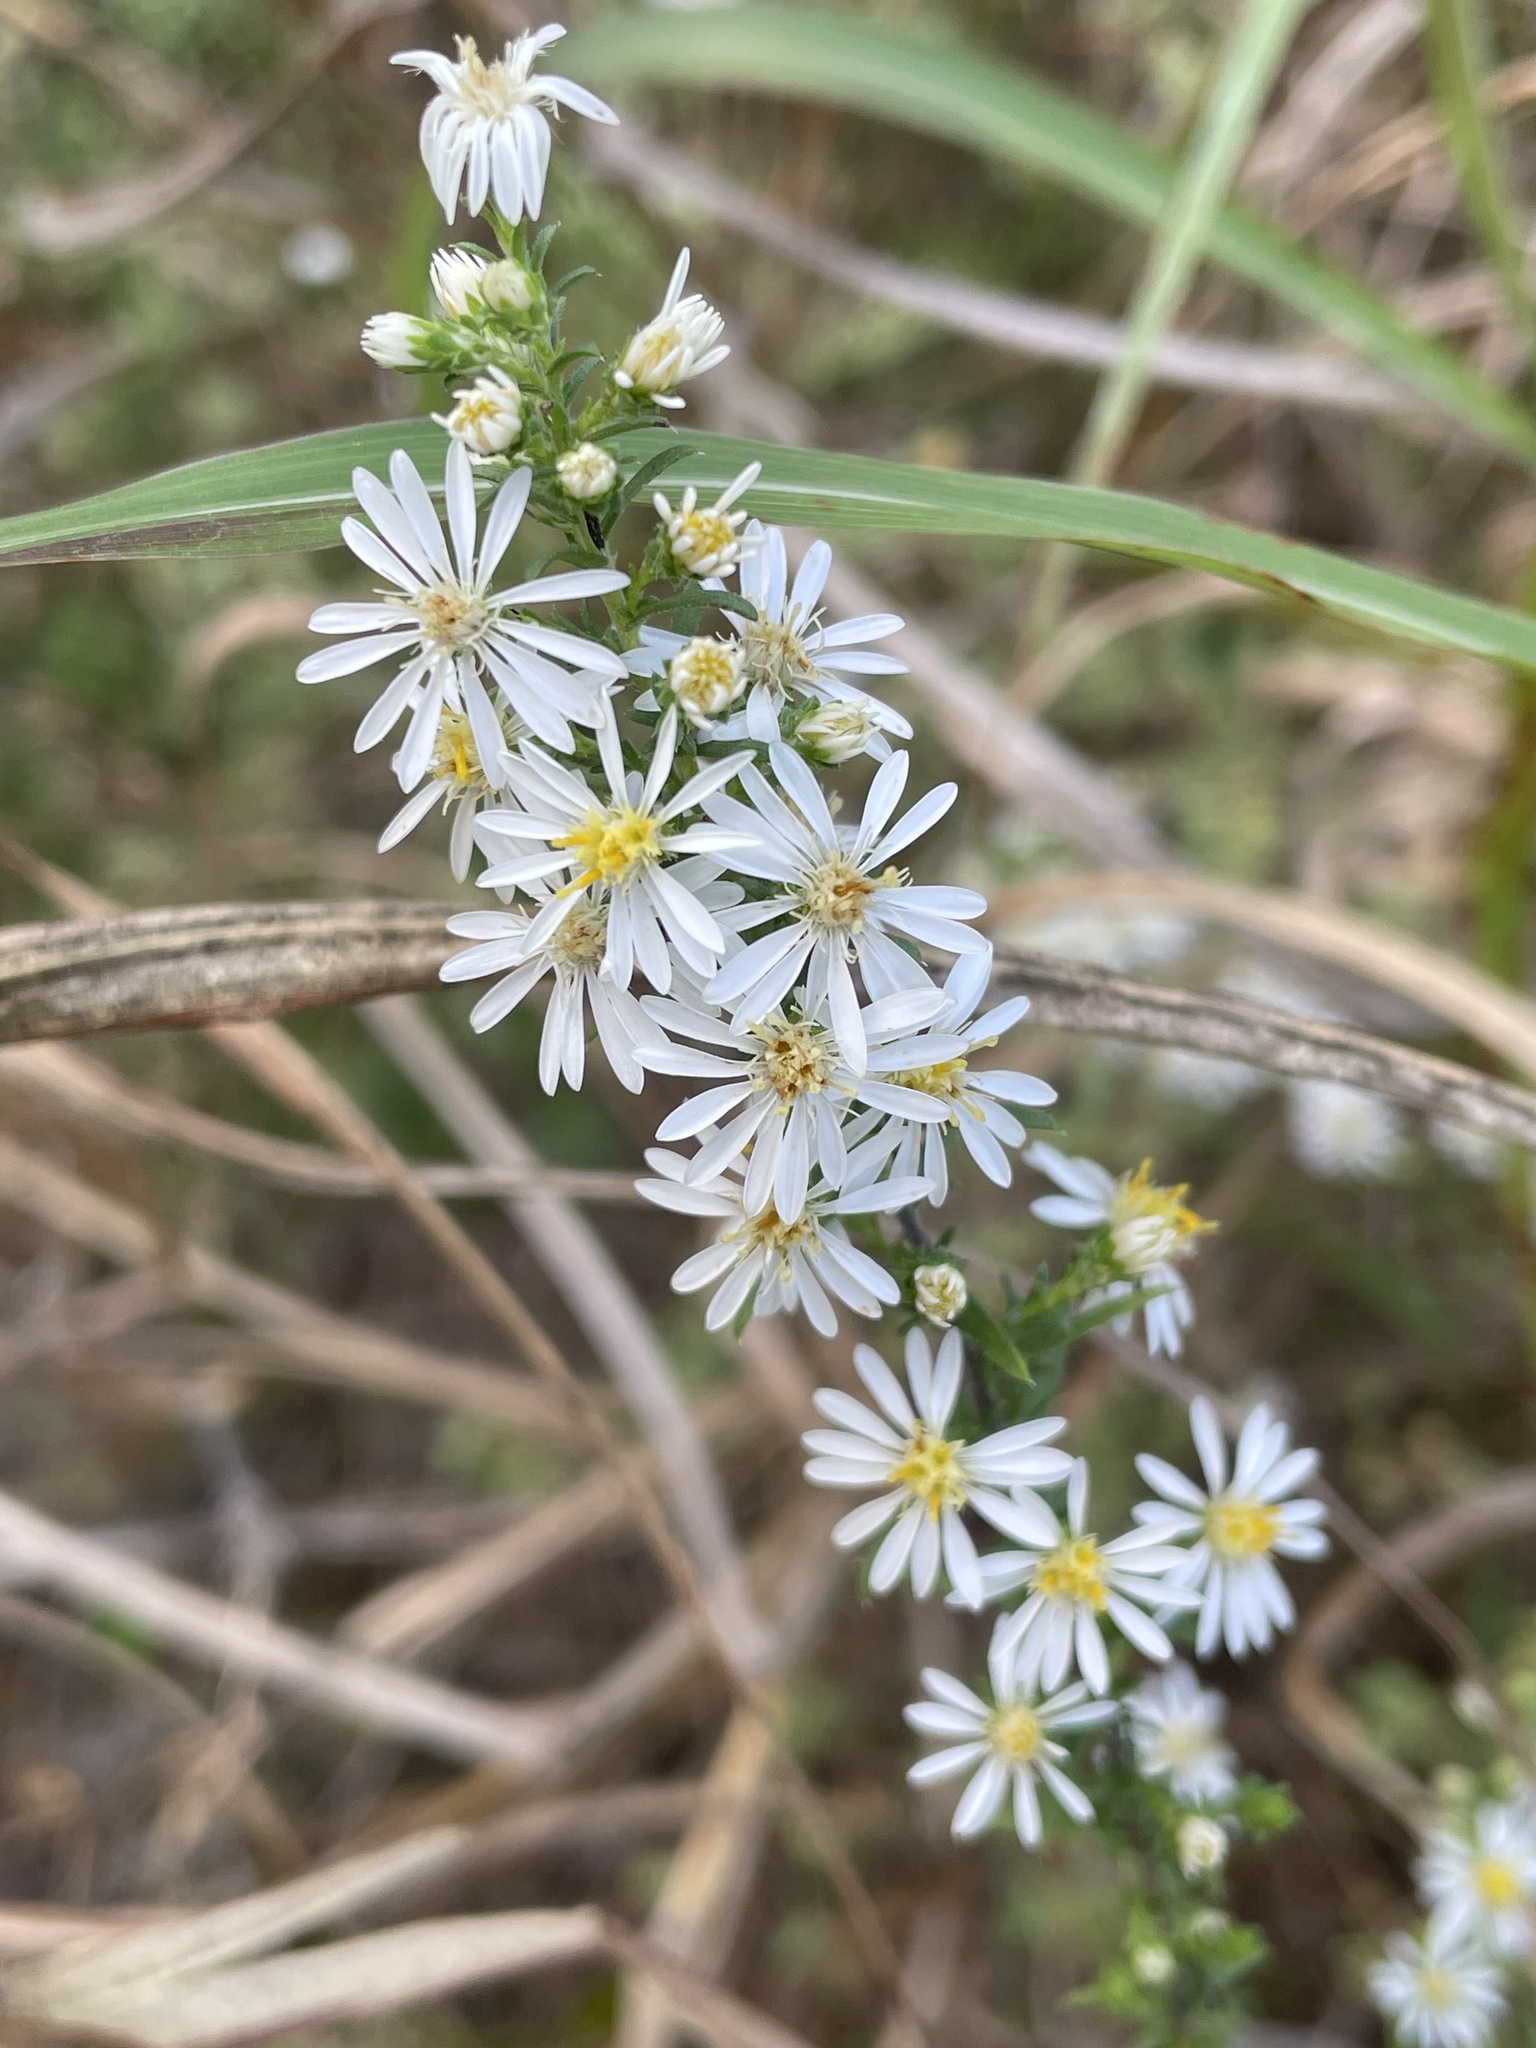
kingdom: Plantae
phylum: Tracheophyta
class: Magnoliopsida
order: Asterales
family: Asteraceae
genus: Symphyotrichum
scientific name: Symphyotrichum ericoides
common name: Heath aster
